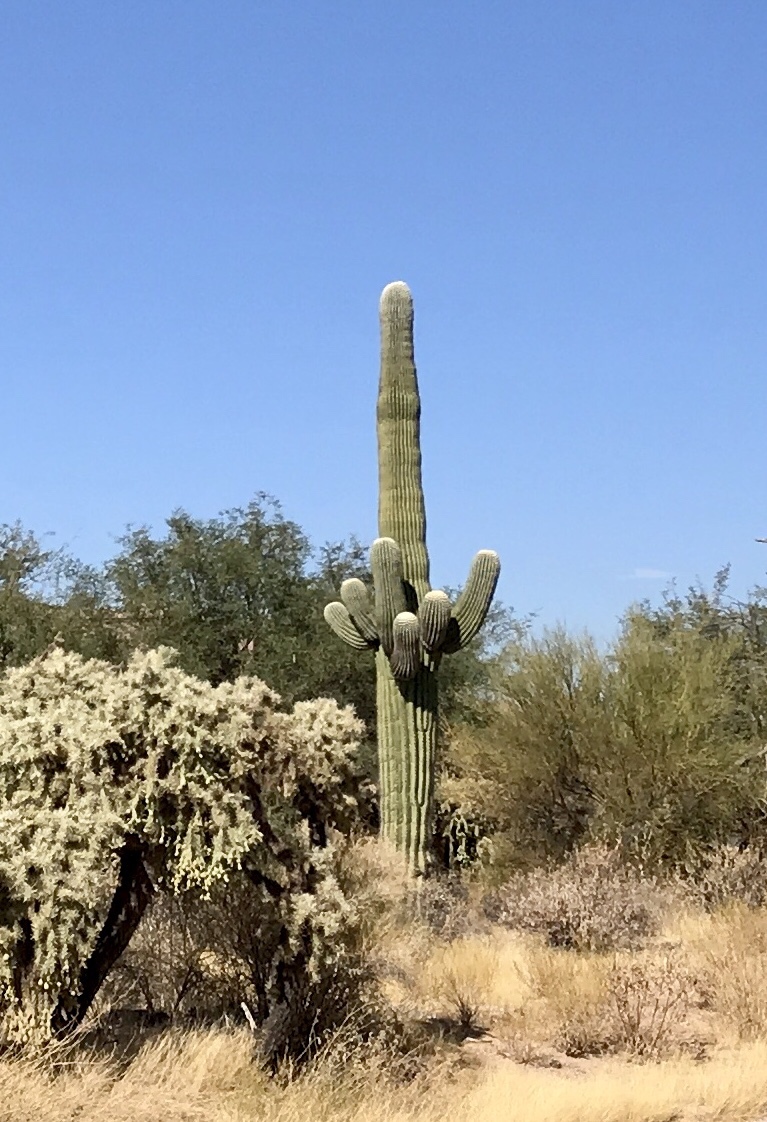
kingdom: Plantae
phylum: Tracheophyta
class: Magnoliopsida
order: Caryophyllales
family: Cactaceae
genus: Carnegiea
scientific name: Carnegiea gigantea
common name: Saguaro
